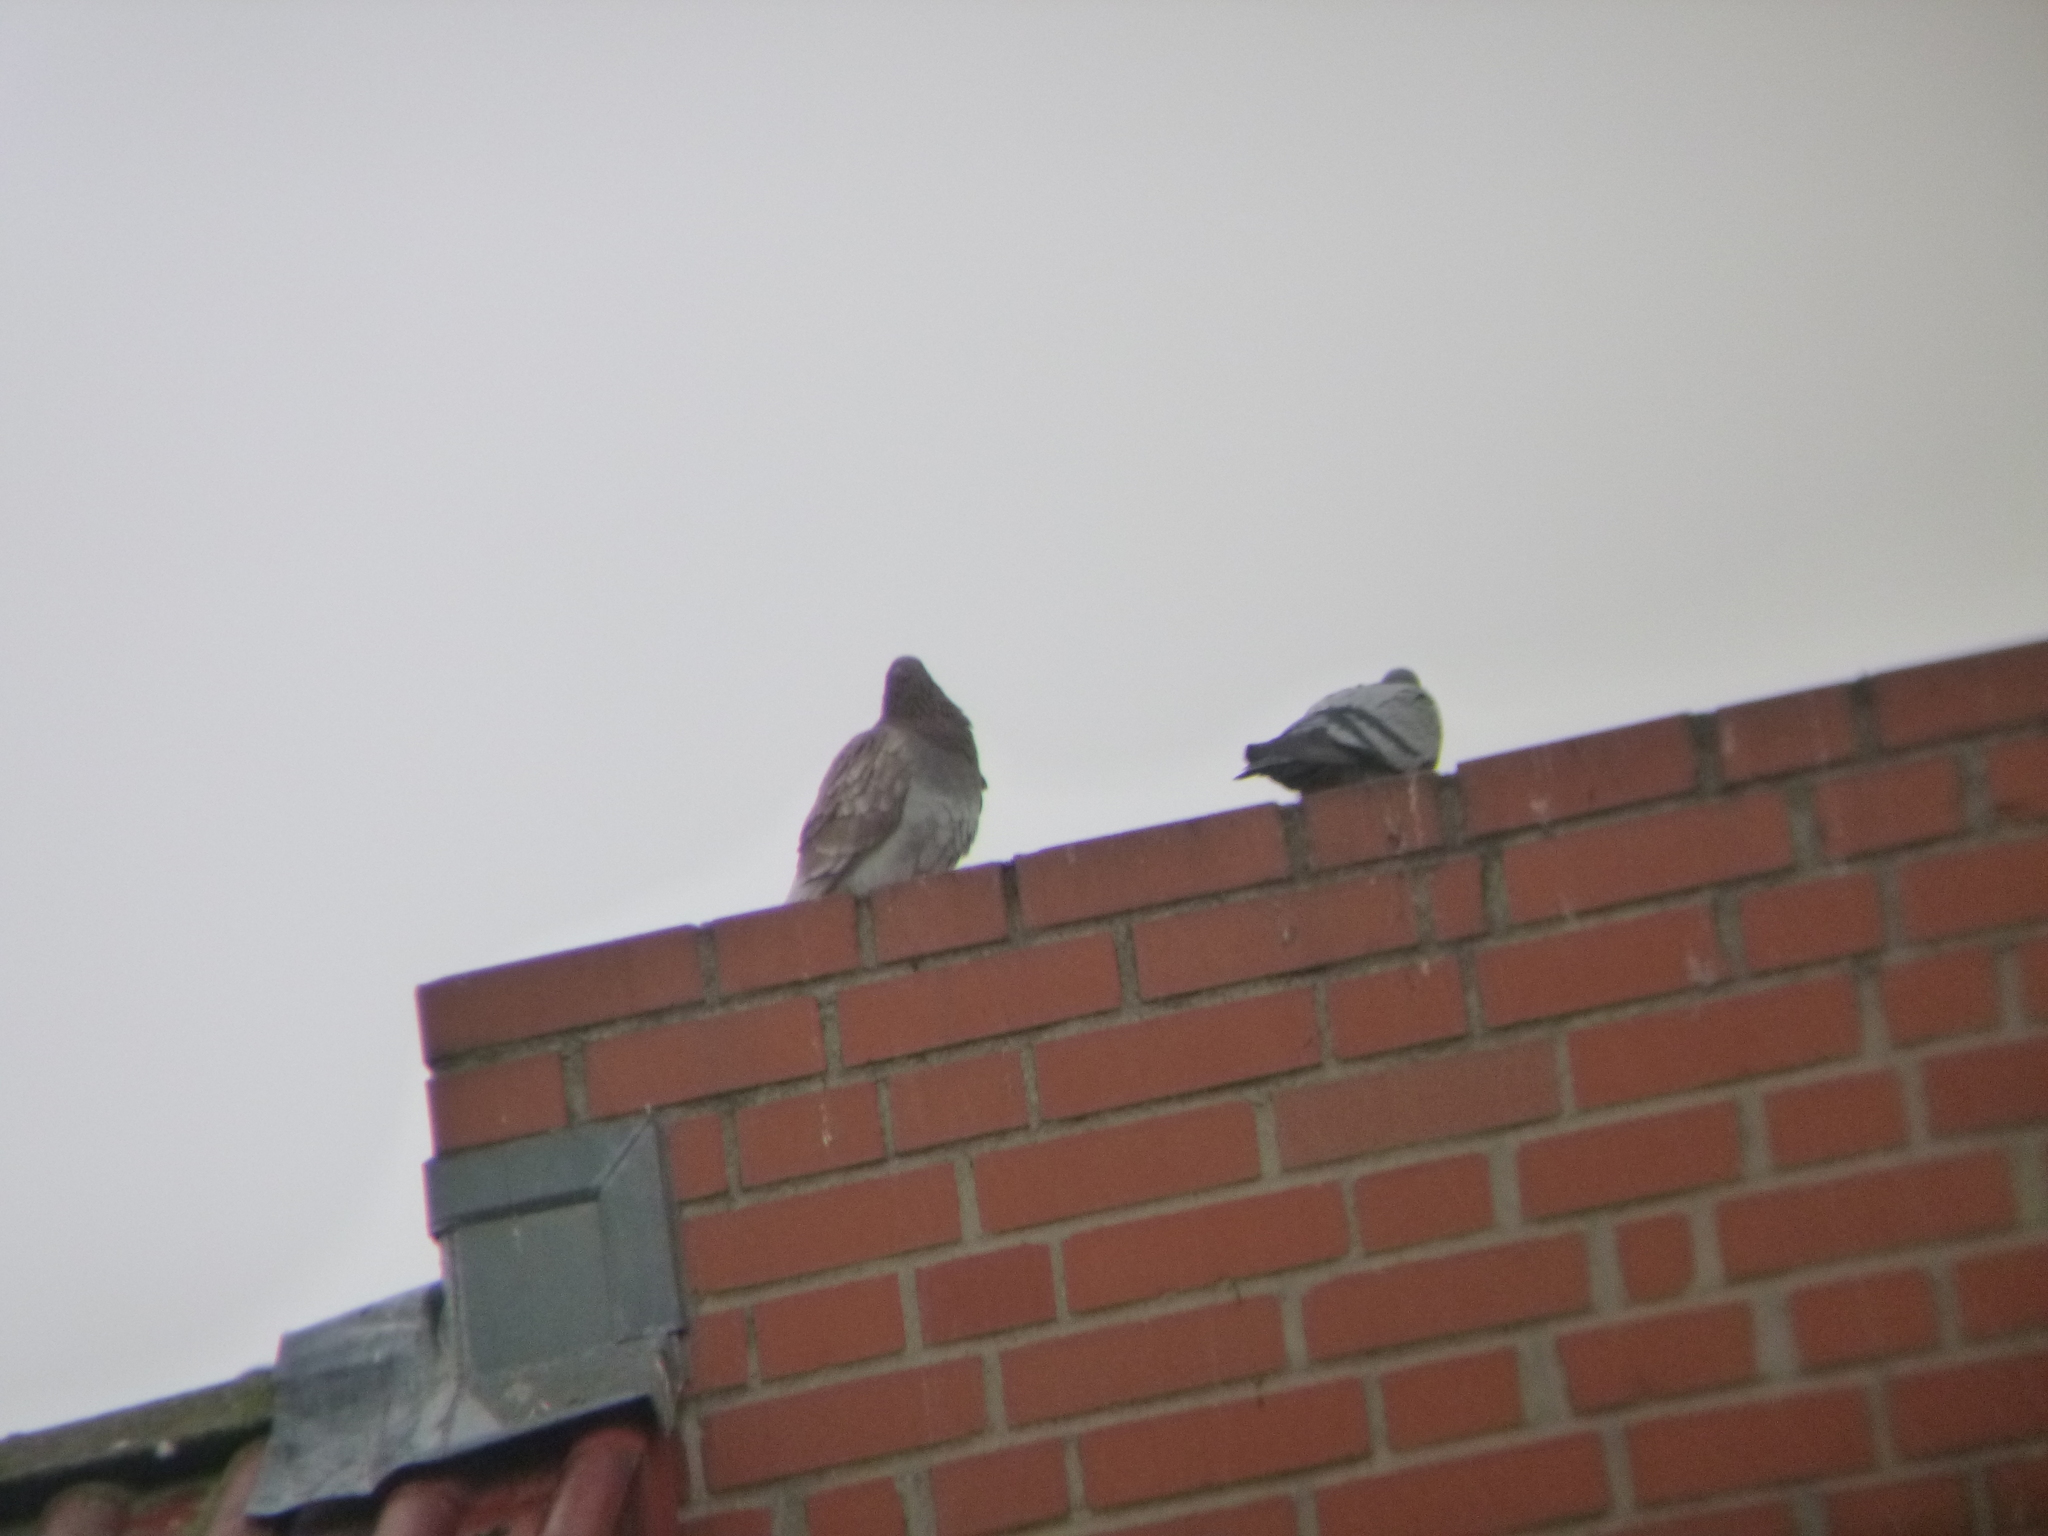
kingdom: Animalia
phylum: Chordata
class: Aves
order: Columbiformes
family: Columbidae
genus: Columba
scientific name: Columba livia
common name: Rock pigeon
